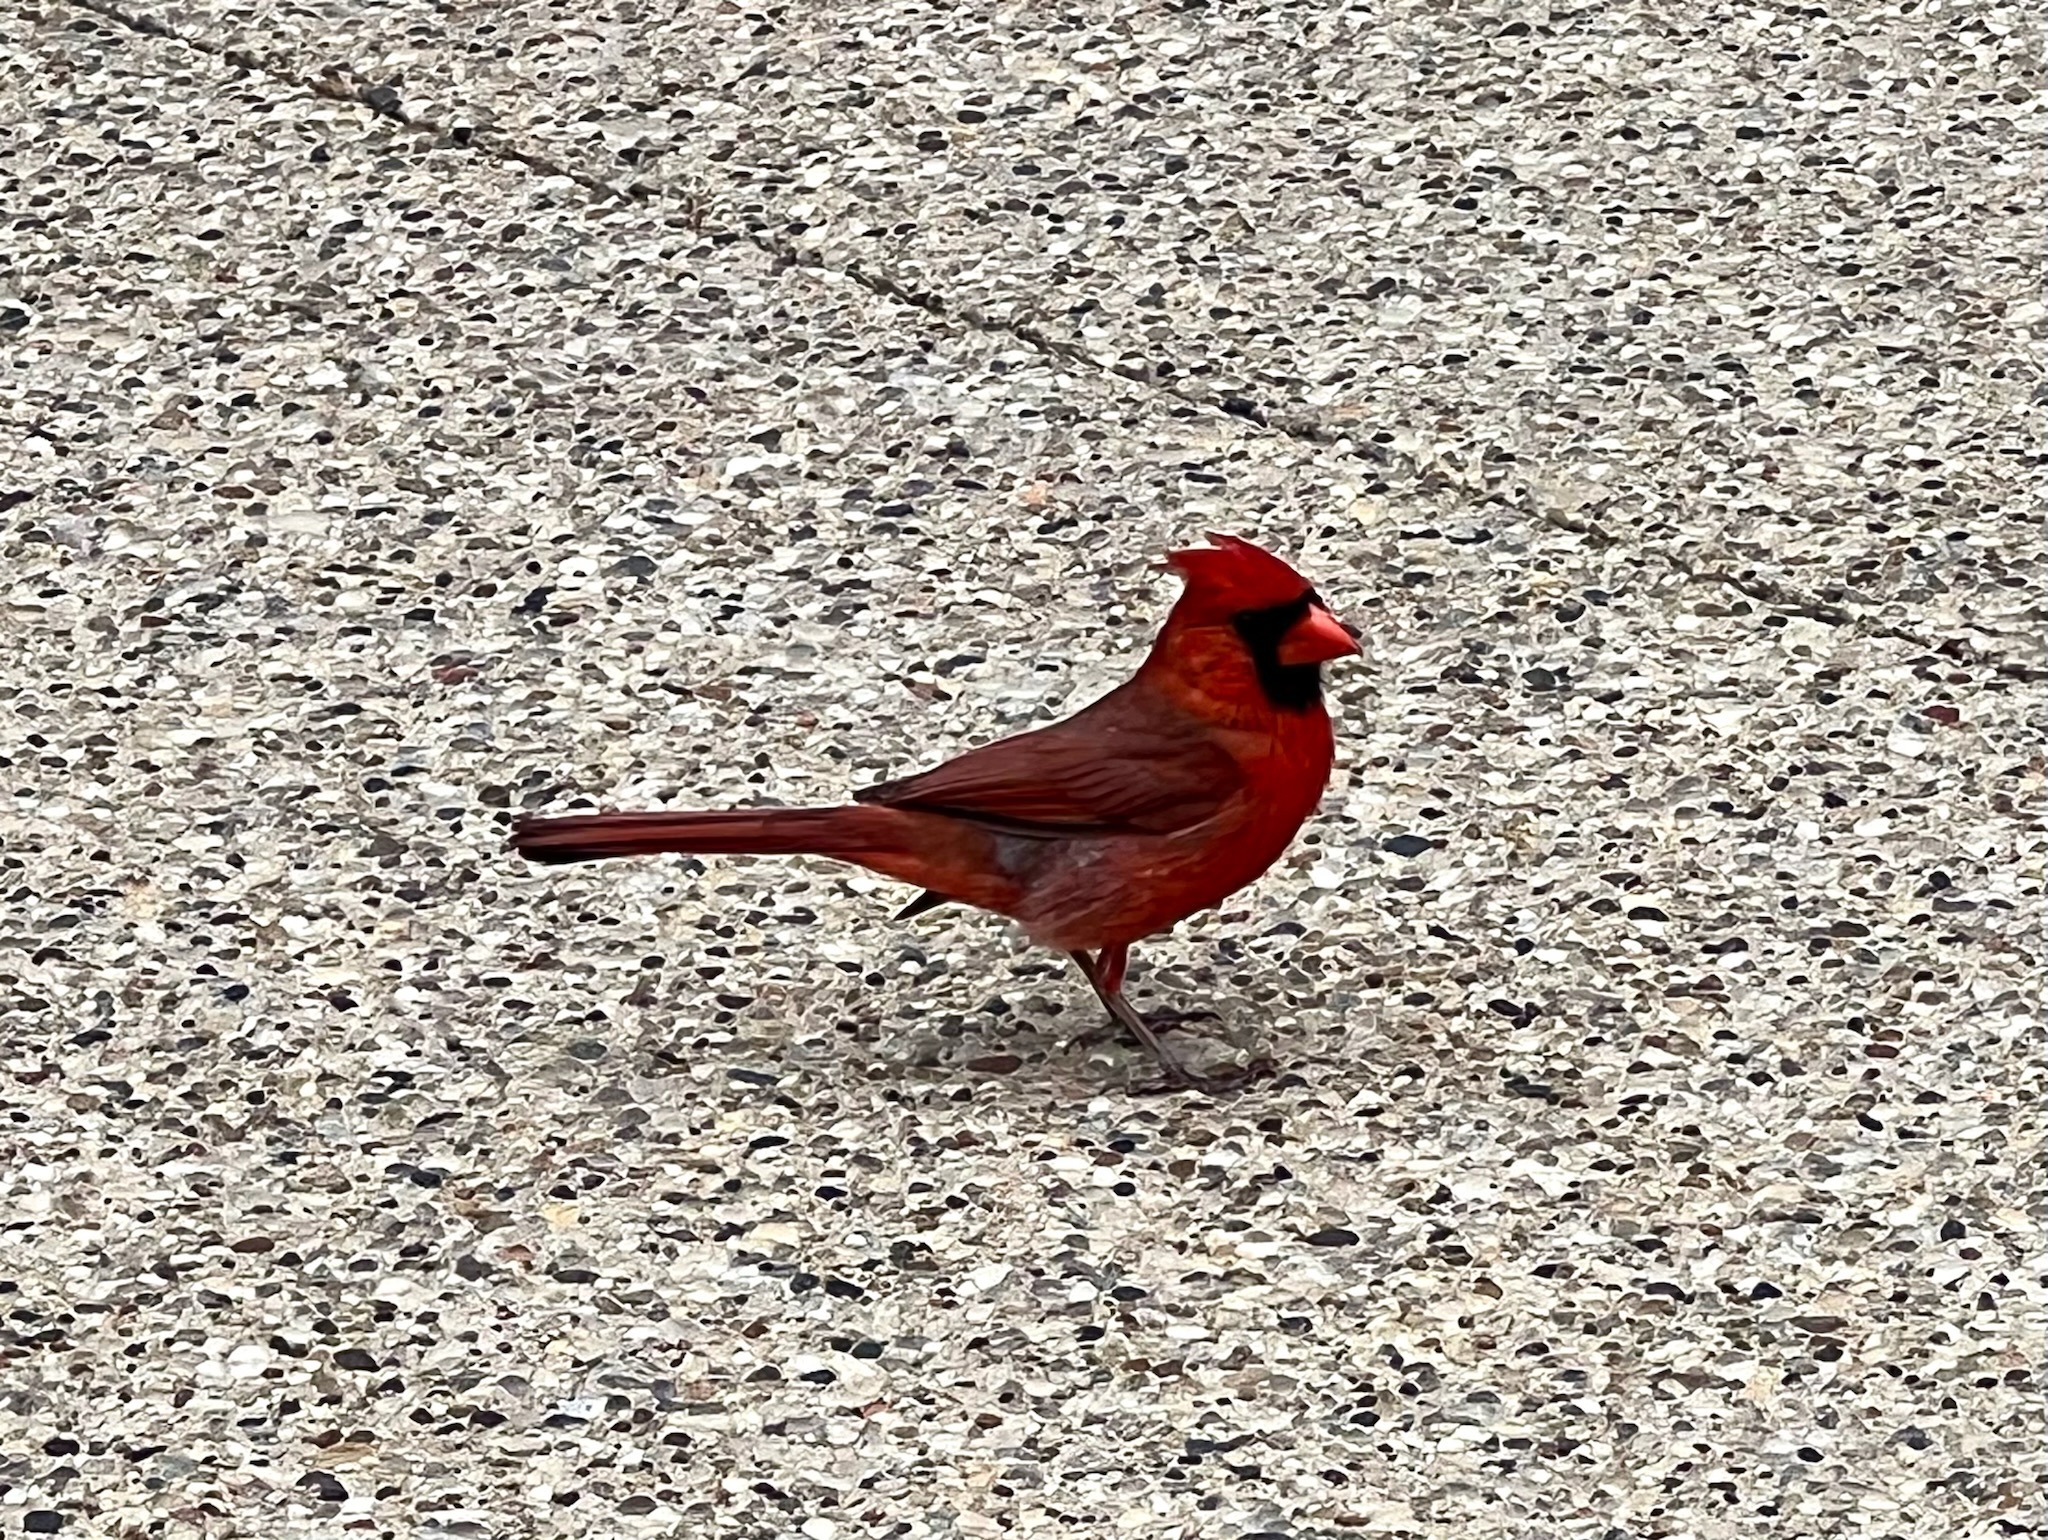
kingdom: Animalia
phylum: Chordata
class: Aves
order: Passeriformes
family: Cardinalidae
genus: Cardinalis
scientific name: Cardinalis cardinalis
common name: Northern cardinal
